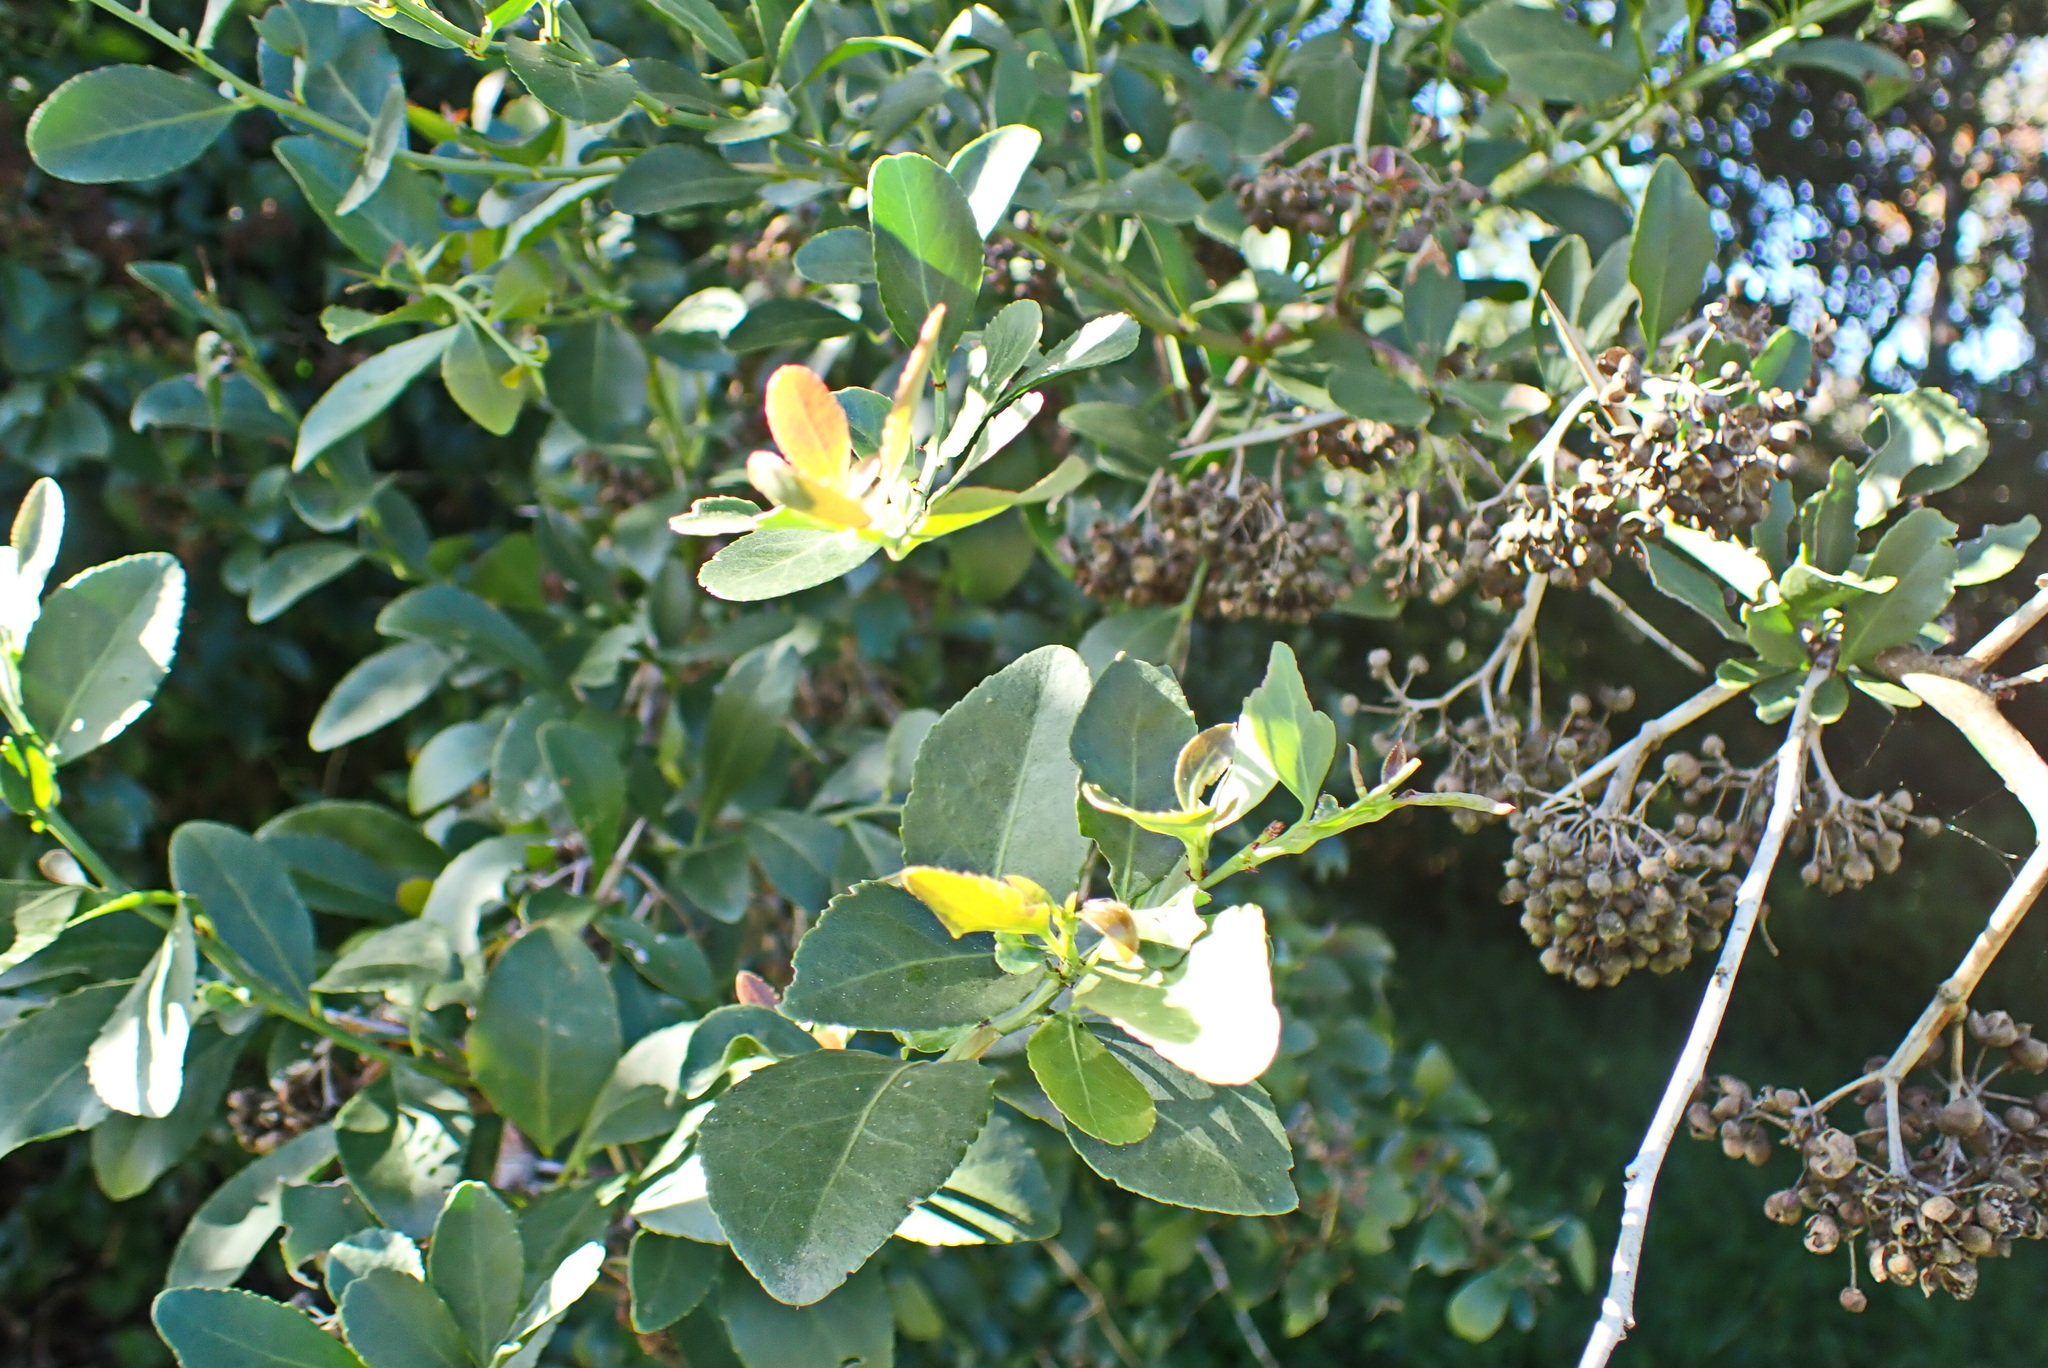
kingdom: Plantae
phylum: Tracheophyta
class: Magnoliopsida
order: Celastrales
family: Celastraceae
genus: Gymnosporia
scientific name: Gymnosporia buxifolia
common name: Common spike-thorn
